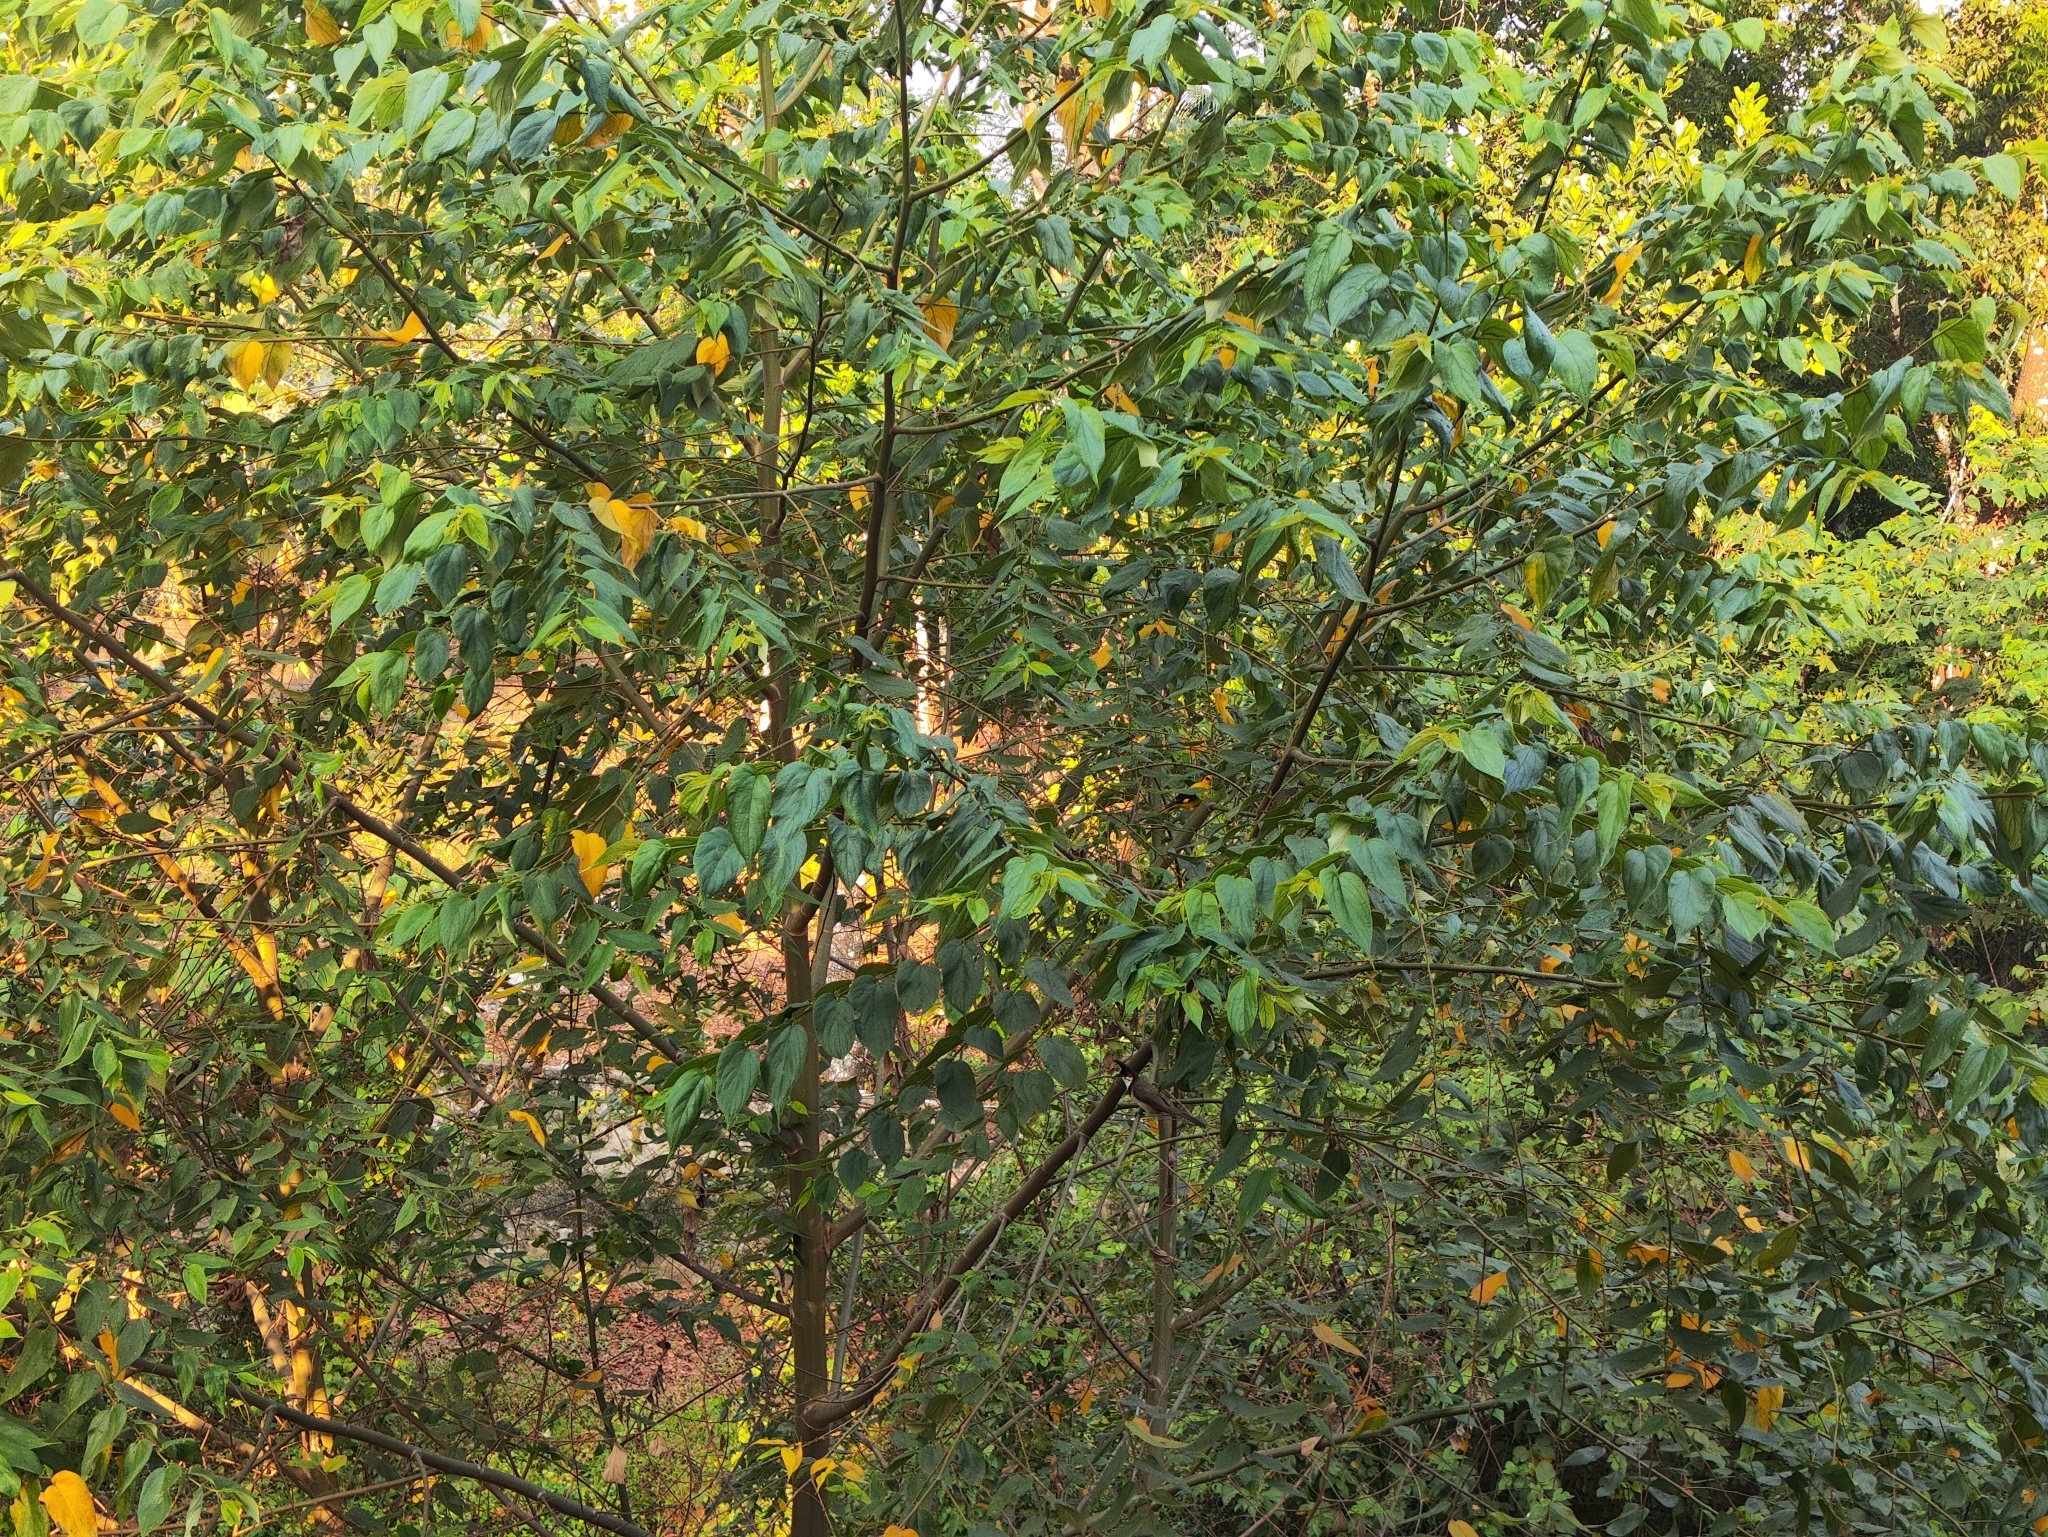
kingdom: Animalia
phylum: Chordata
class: Aves
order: Passeriformes
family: Oriolidae
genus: Oriolus
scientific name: Oriolus kundoo
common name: Indian golden oriole
